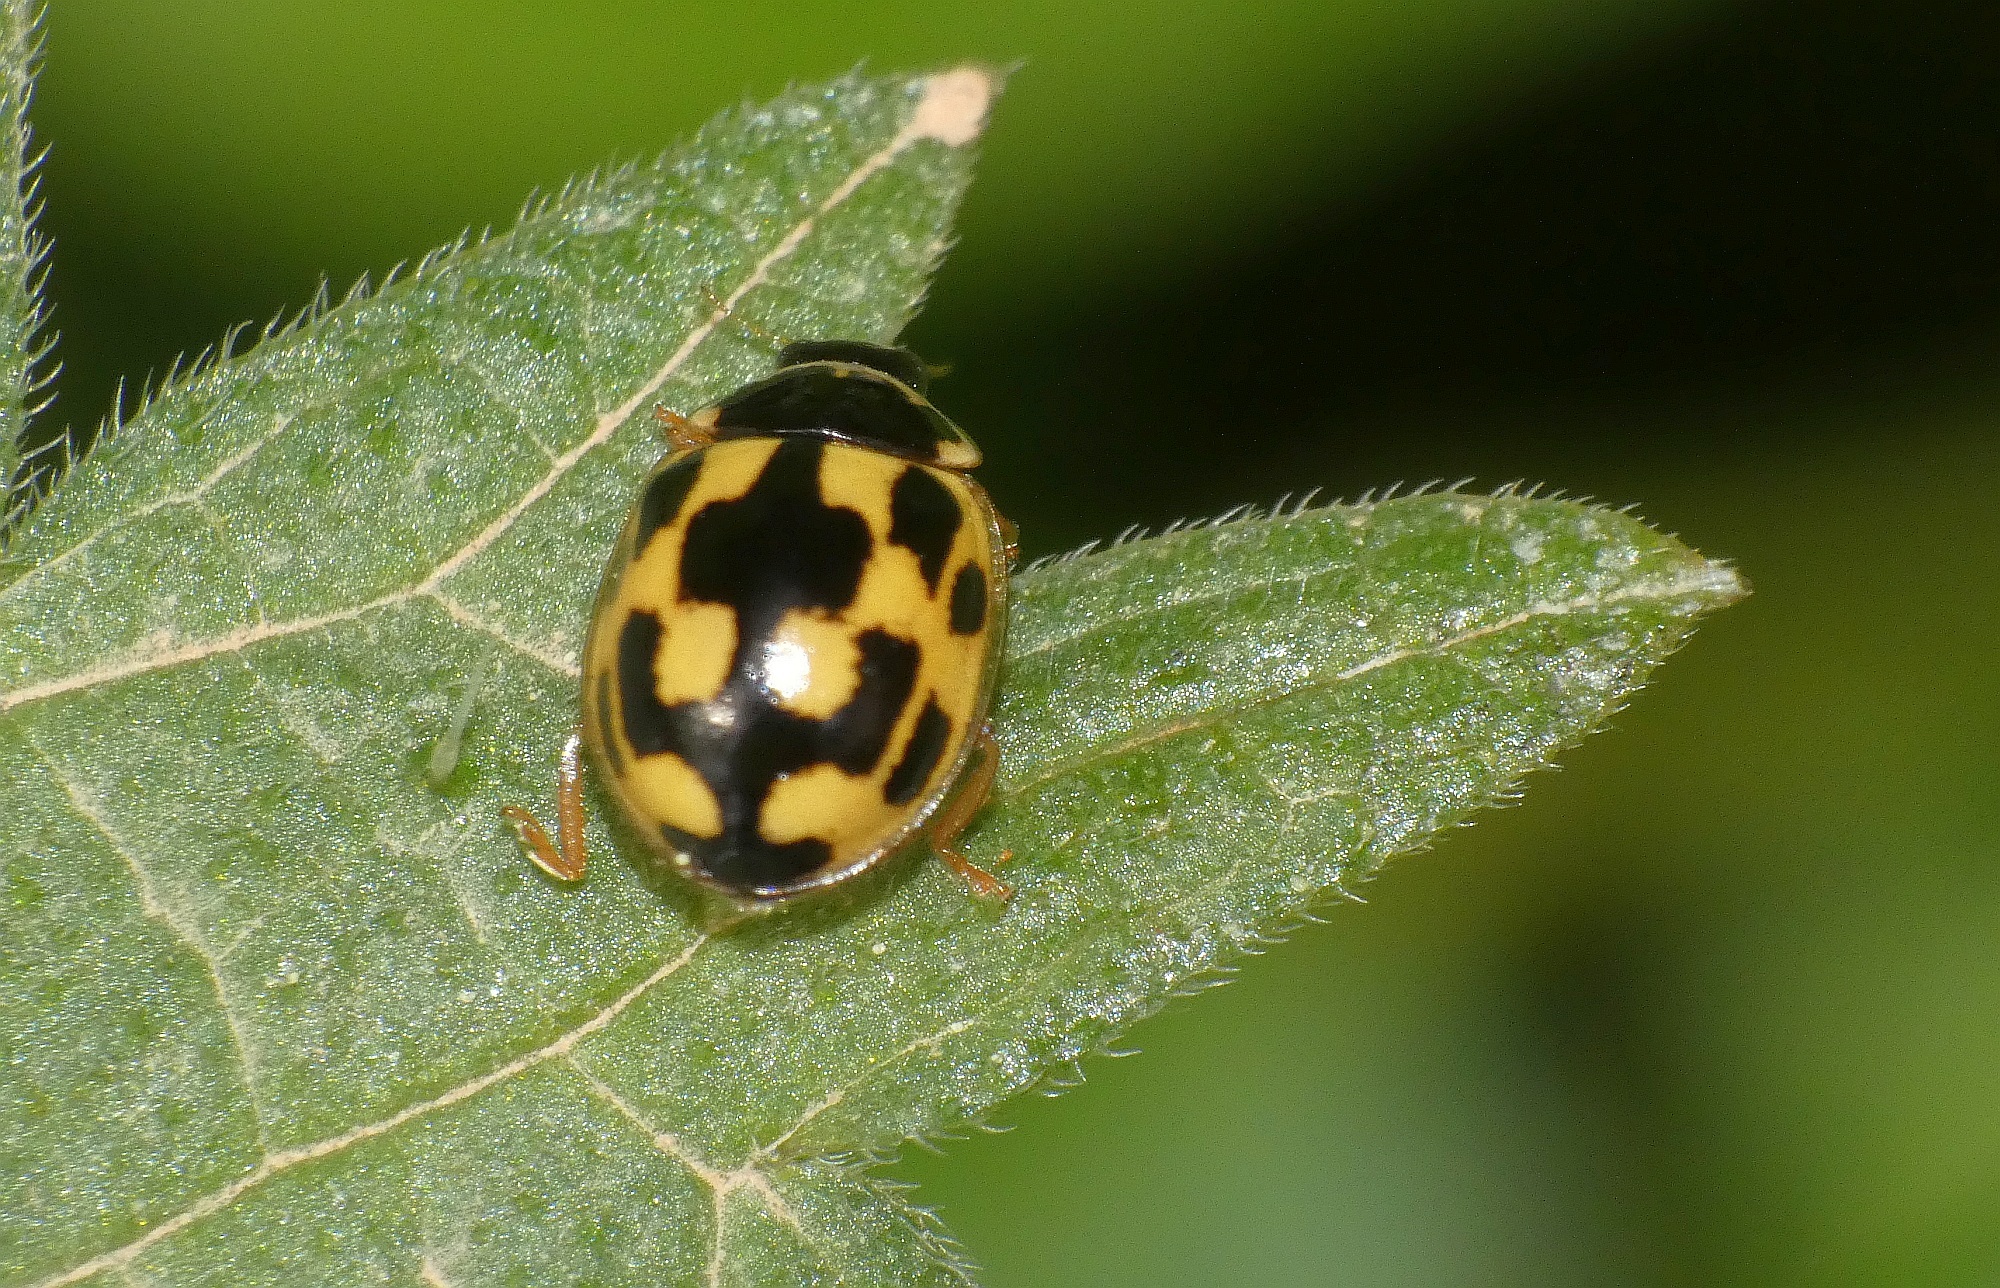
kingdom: Animalia
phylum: Arthropoda
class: Insecta
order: Coleoptera
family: Coccinellidae
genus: Propylaea
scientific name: Propylaea quatuordecimpunctata
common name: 14-spotted ladybird beetle
